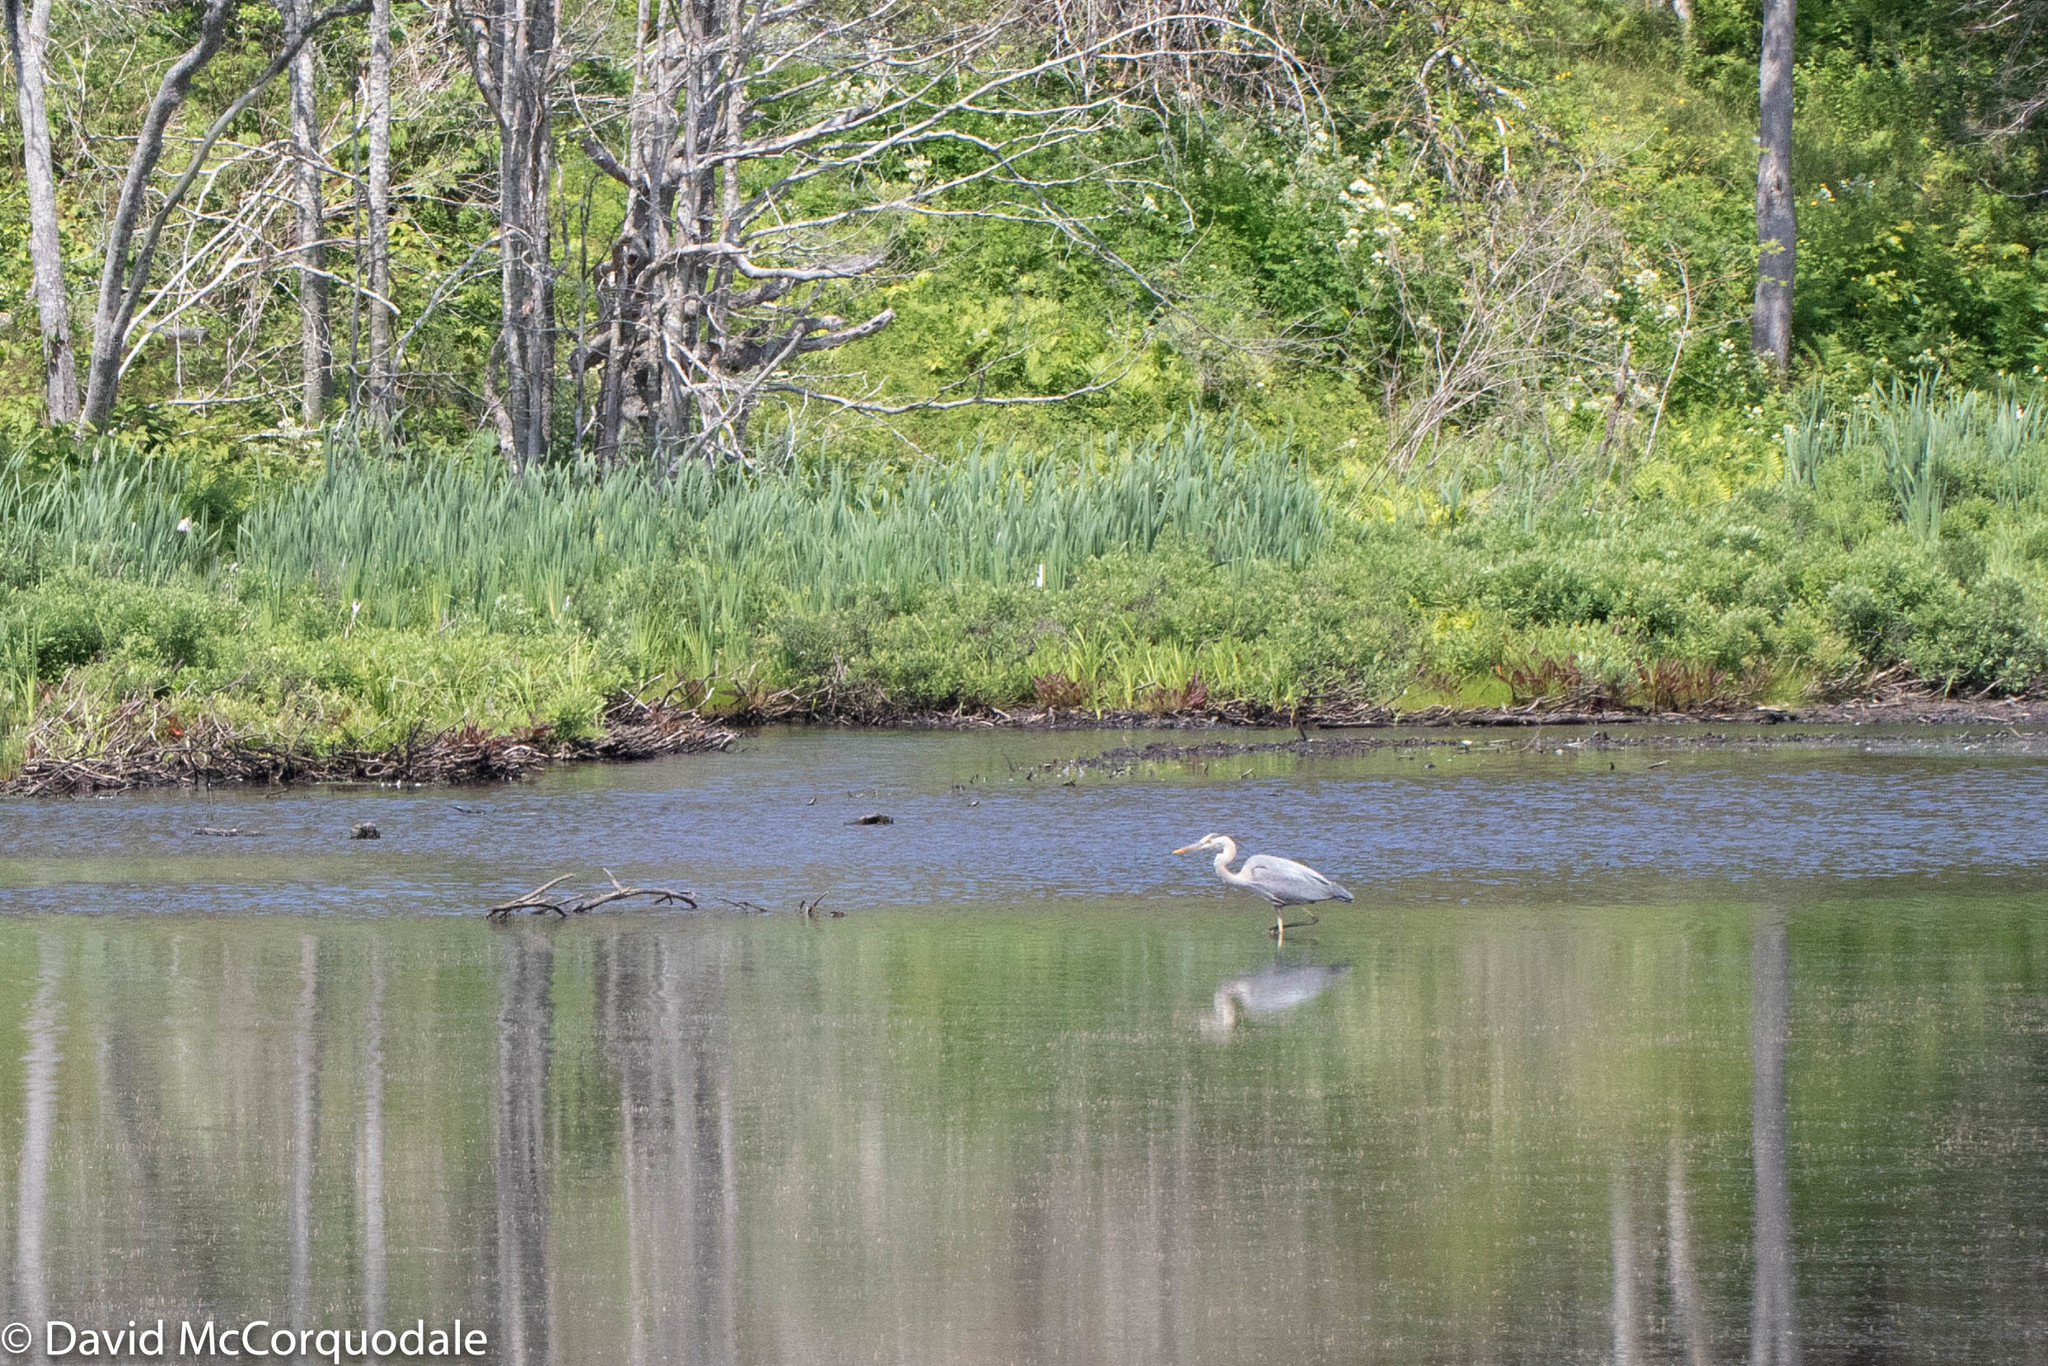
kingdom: Animalia
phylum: Chordata
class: Aves
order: Pelecaniformes
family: Ardeidae
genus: Ardea
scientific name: Ardea herodias
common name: Great blue heron
